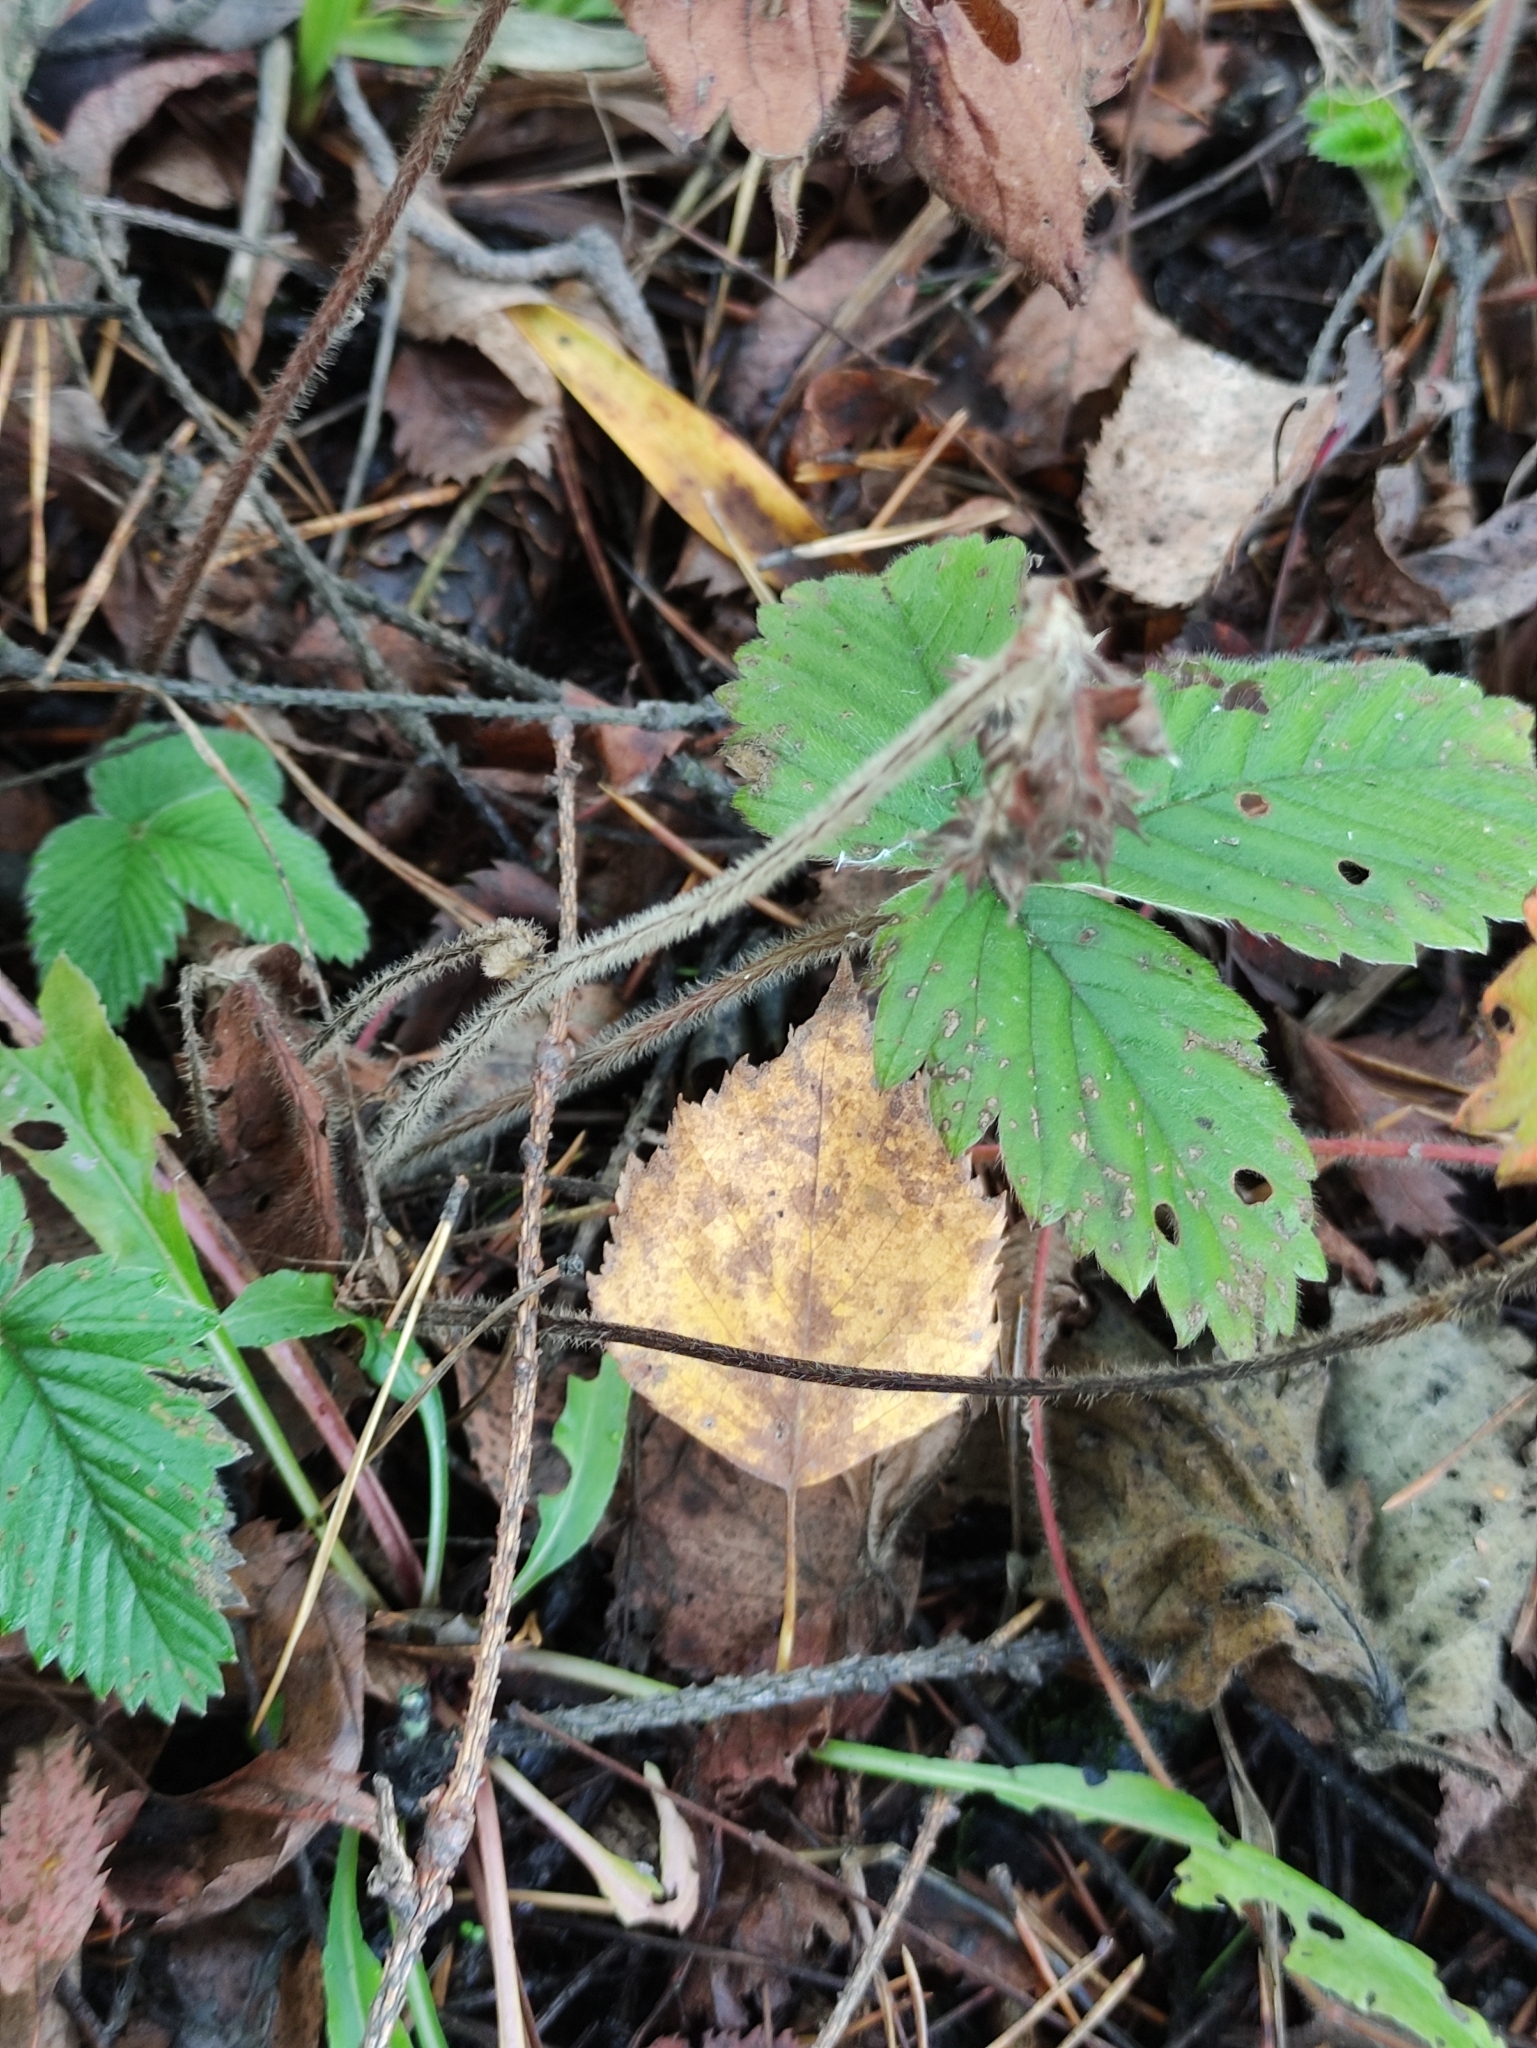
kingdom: Plantae
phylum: Tracheophyta
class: Magnoliopsida
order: Rosales
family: Rosaceae
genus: Fragaria
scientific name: Fragaria moschata
